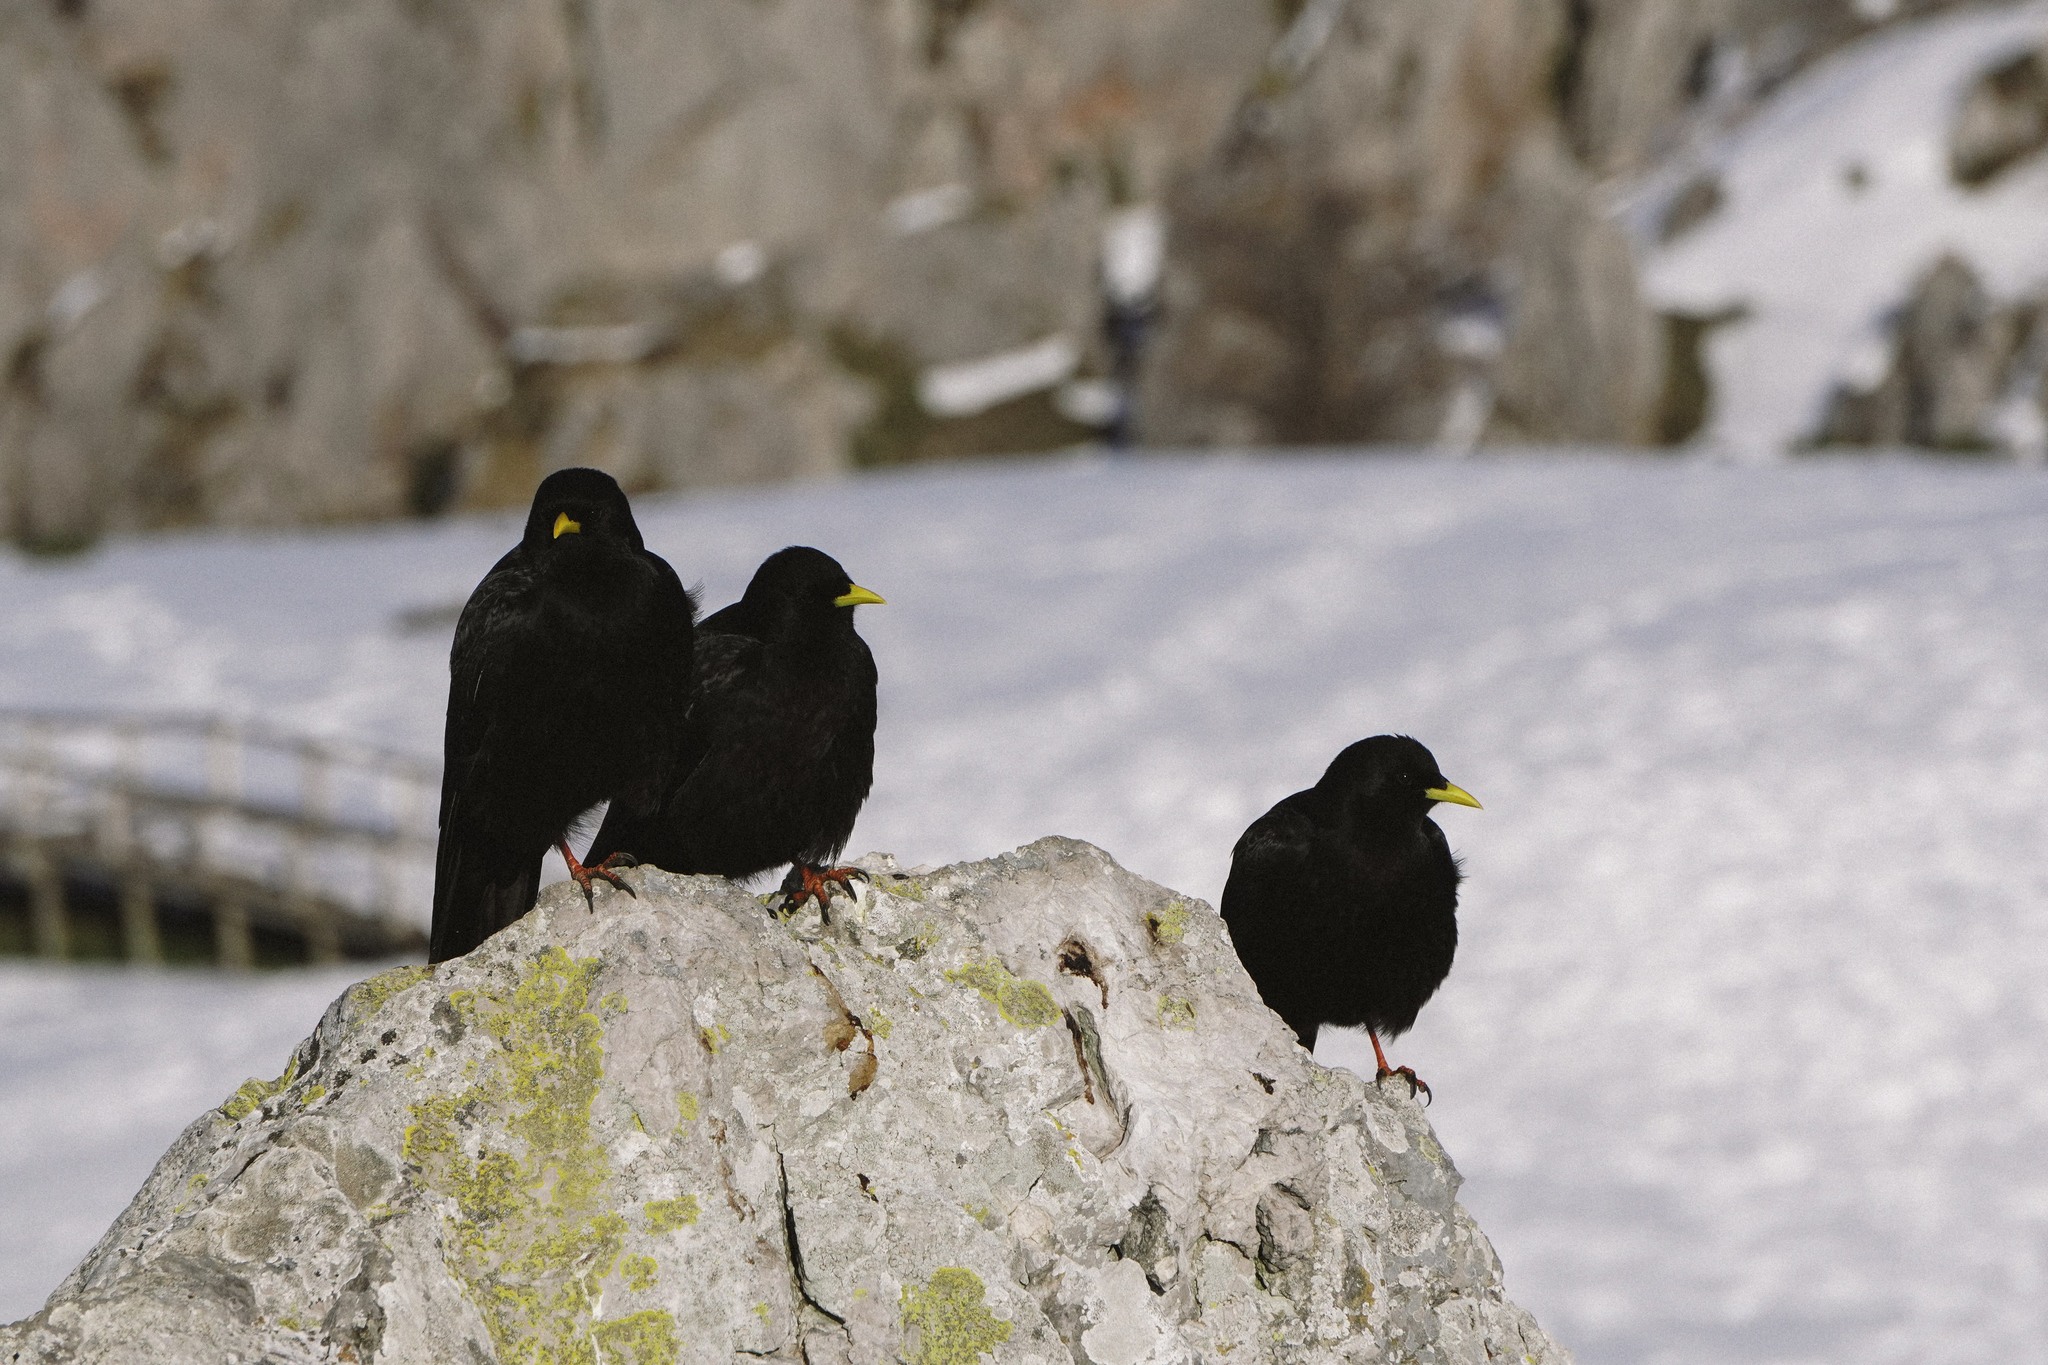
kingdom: Animalia
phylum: Chordata
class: Aves
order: Passeriformes
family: Corvidae
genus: Pyrrhocorax
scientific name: Pyrrhocorax graculus
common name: Alpine chough
